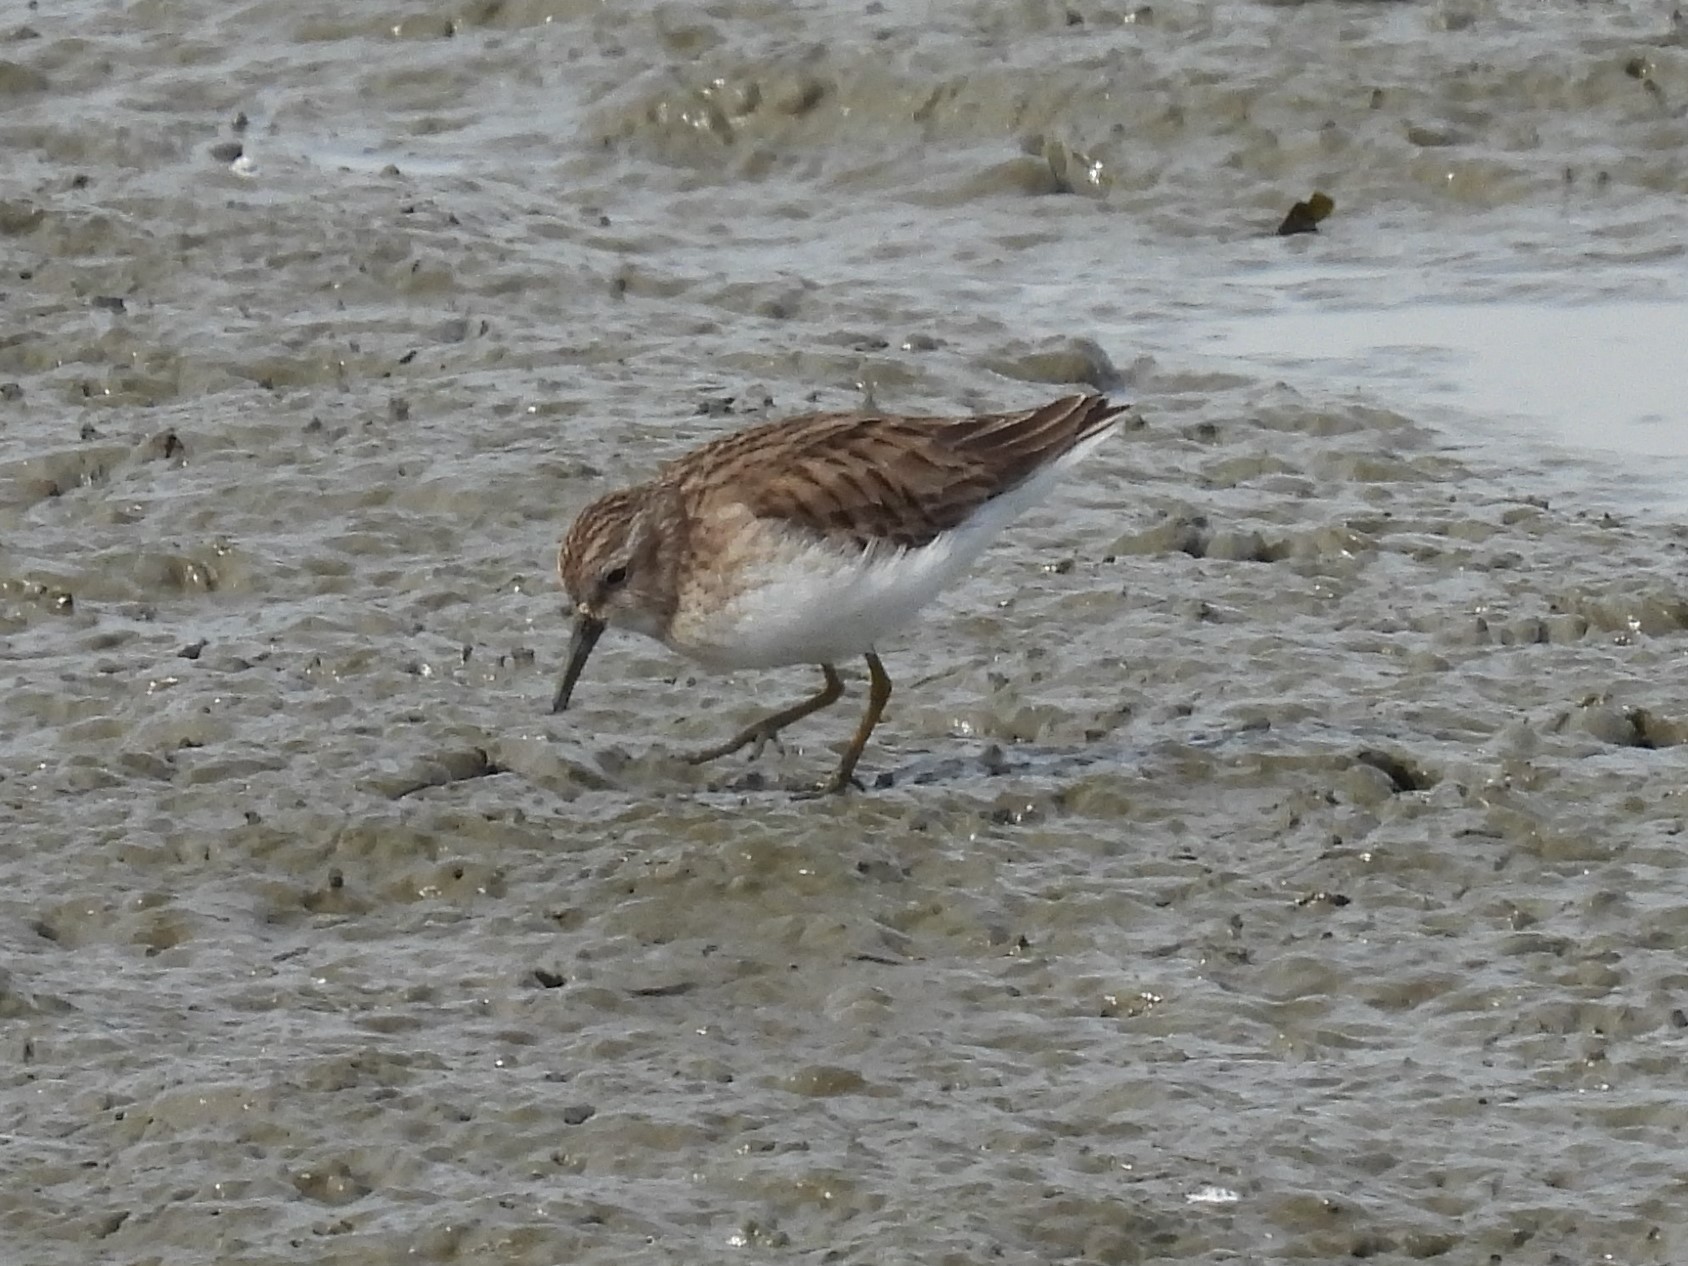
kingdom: Animalia
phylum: Chordata
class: Aves
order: Charadriiformes
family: Scolopacidae
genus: Calidris
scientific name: Calidris minutilla
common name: Least sandpiper
